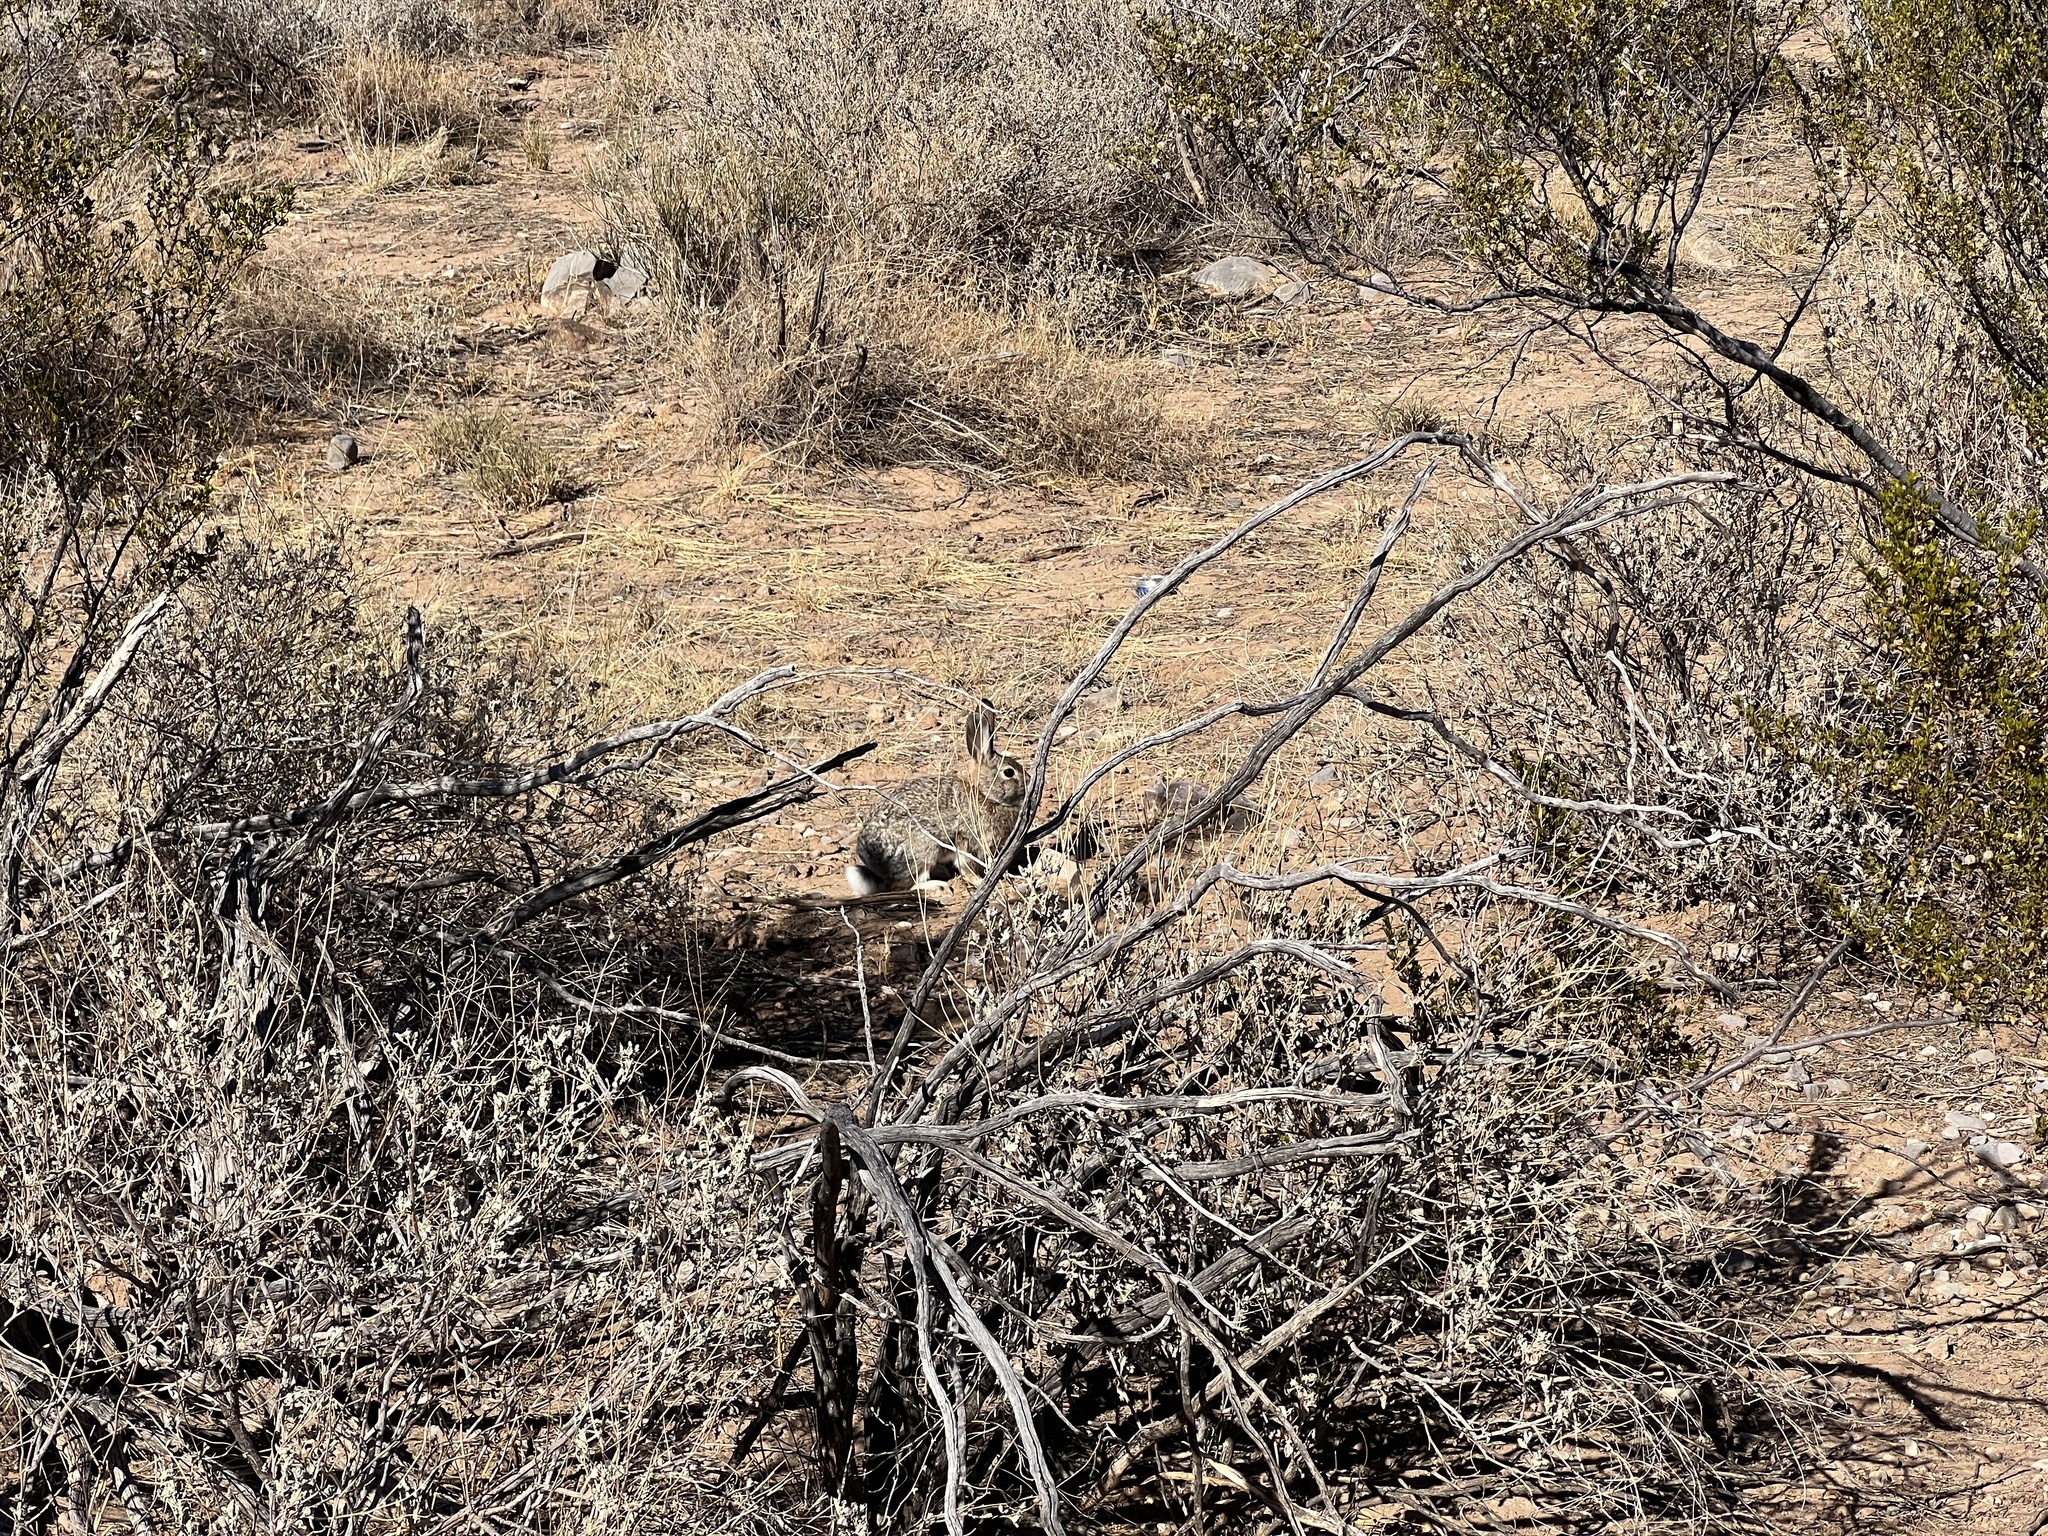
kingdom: Animalia
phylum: Chordata
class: Mammalia
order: Lagomorpha
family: Leporidae
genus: Sylvilagus
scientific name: Sylvilagus audubonii
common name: Desert cottontail
